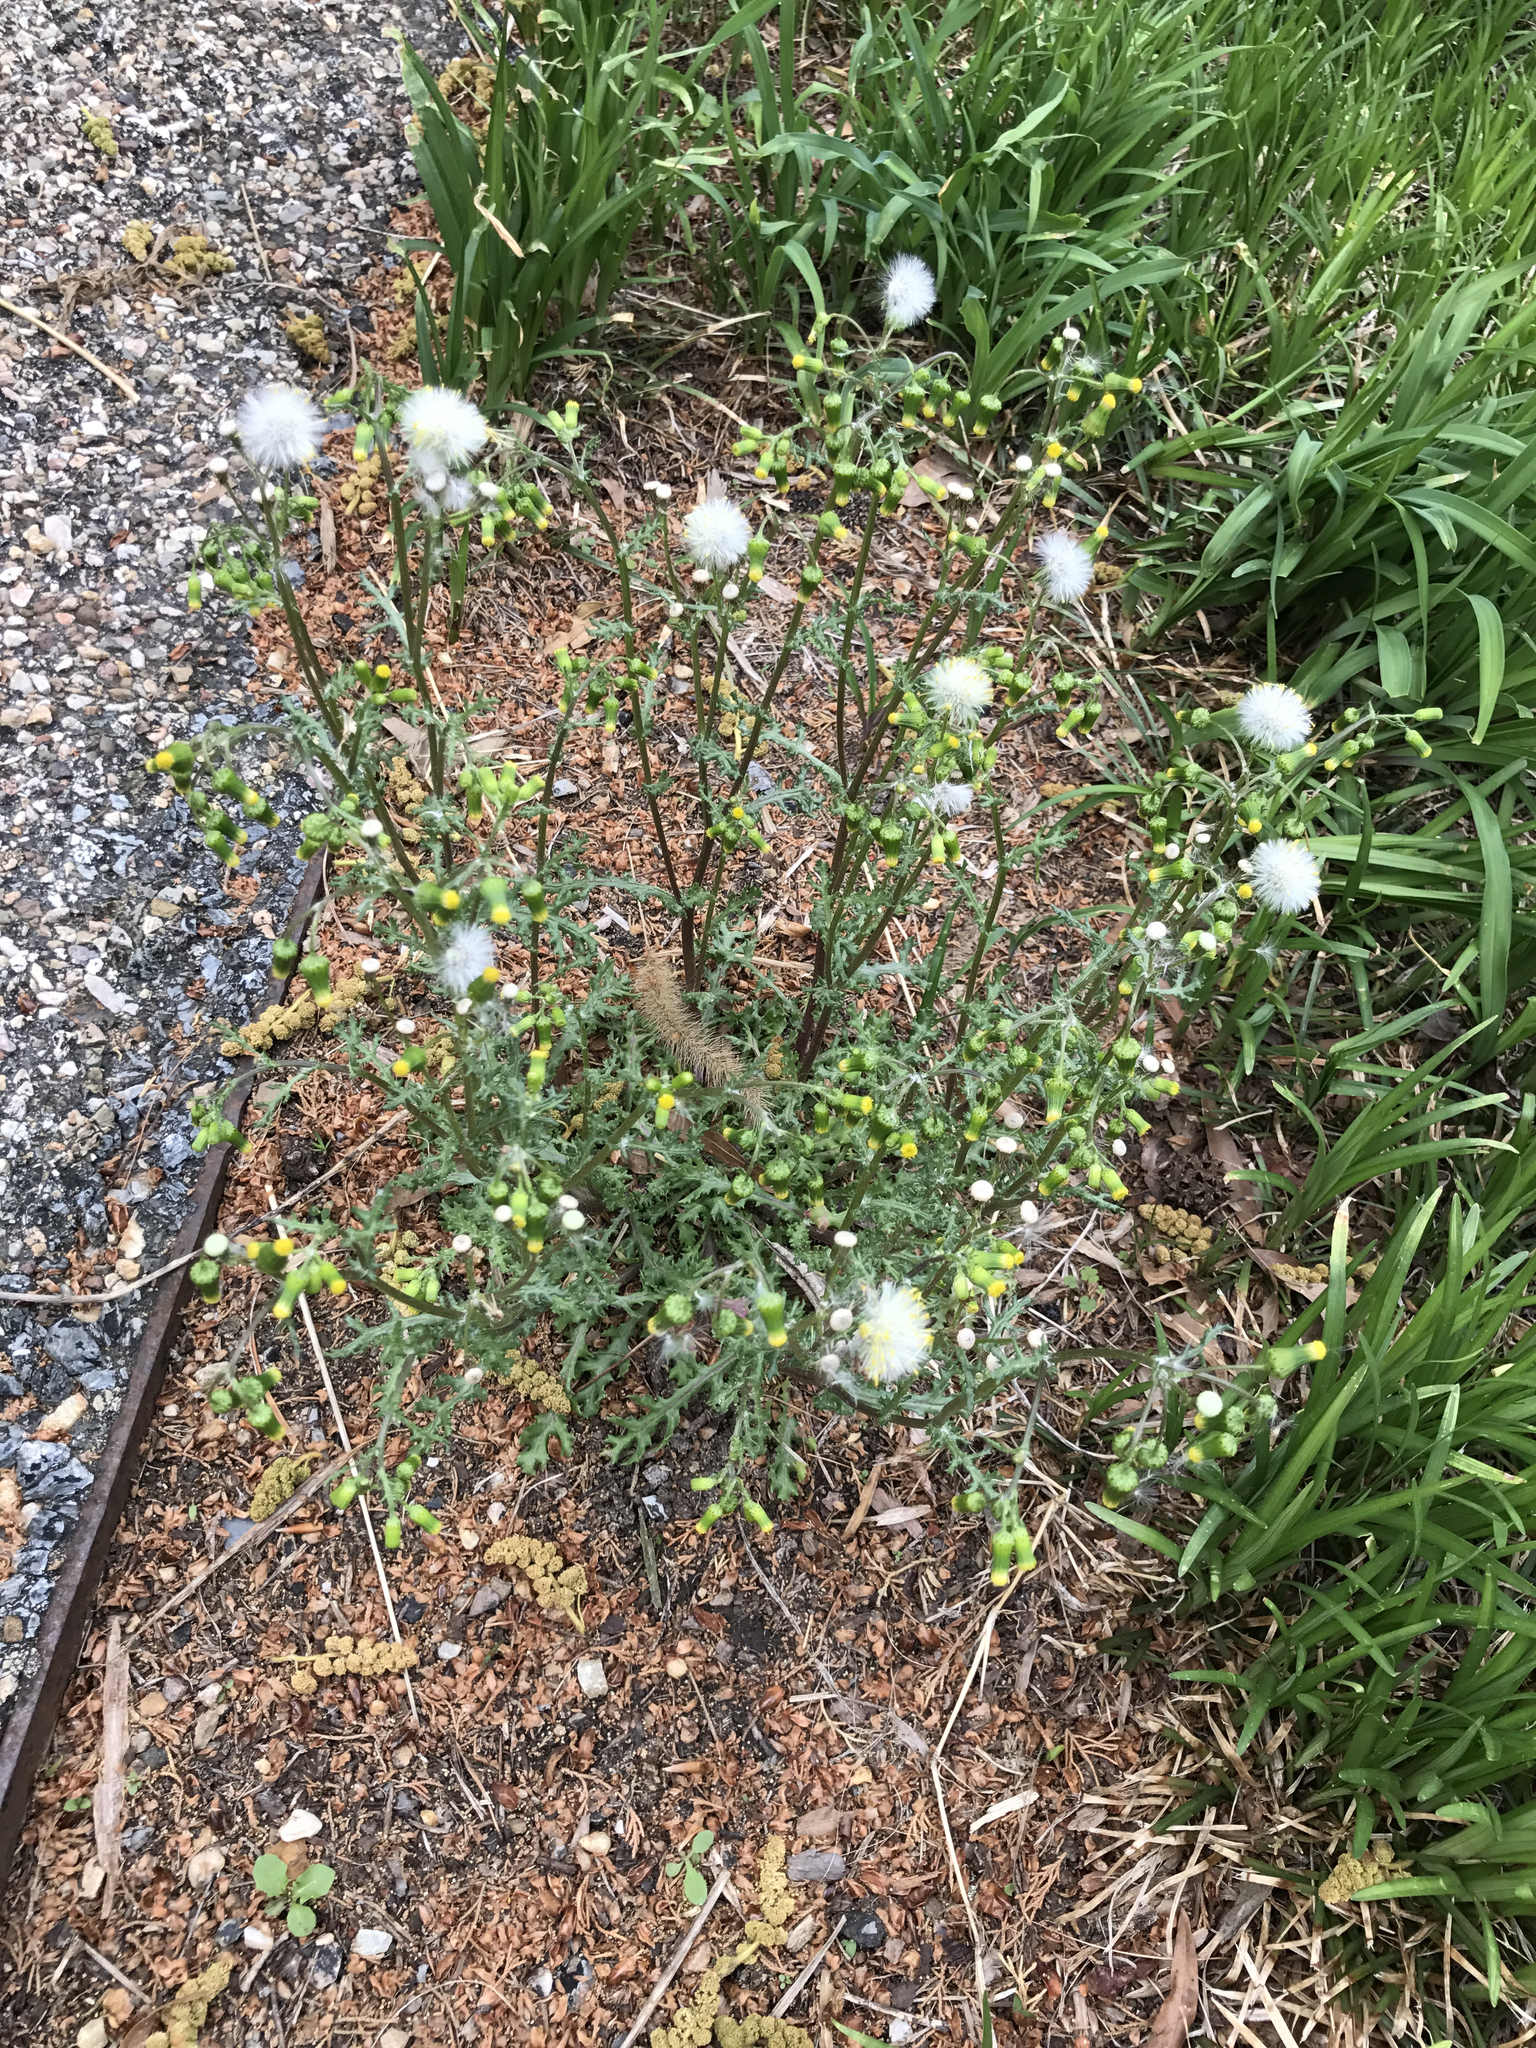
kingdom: Plantae
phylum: Tracheophyta
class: Magnoliopsida
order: Asterales
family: Asteraceae
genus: Senecio
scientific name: Senecio vulgaris
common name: Old-man-in-the-spring
